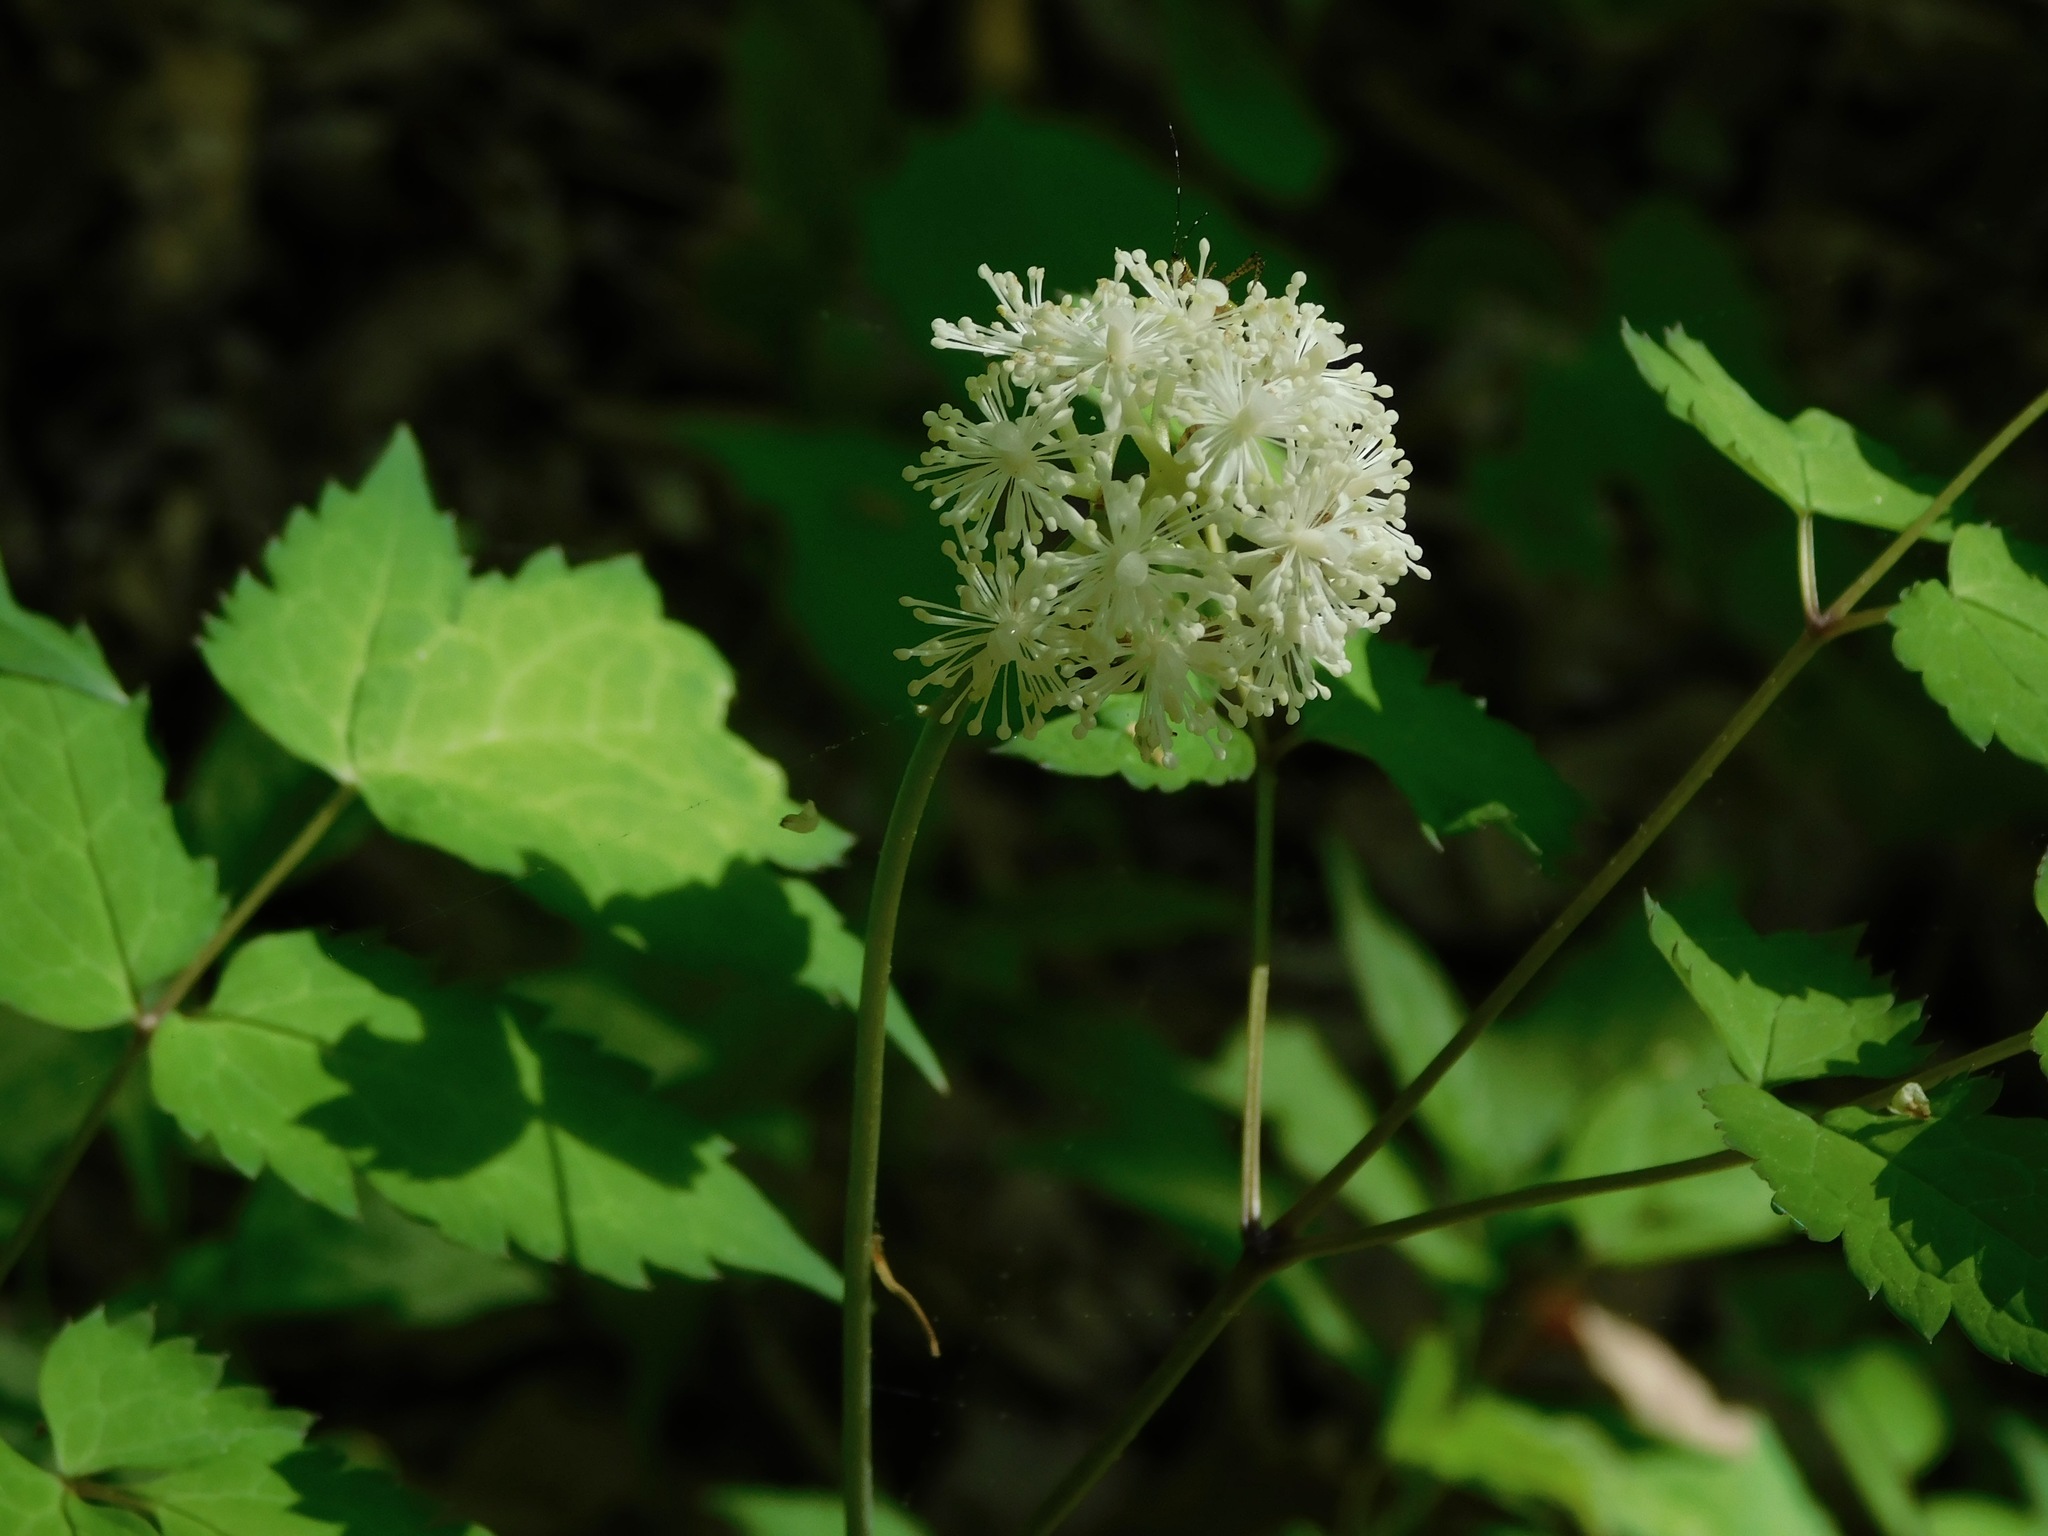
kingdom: Plantae
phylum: Tracheophyta
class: Magnoliopsida
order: Ranunculales
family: Ranunculaceae
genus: Actaea
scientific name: Actaea pachypoda
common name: Doll's-eyes
